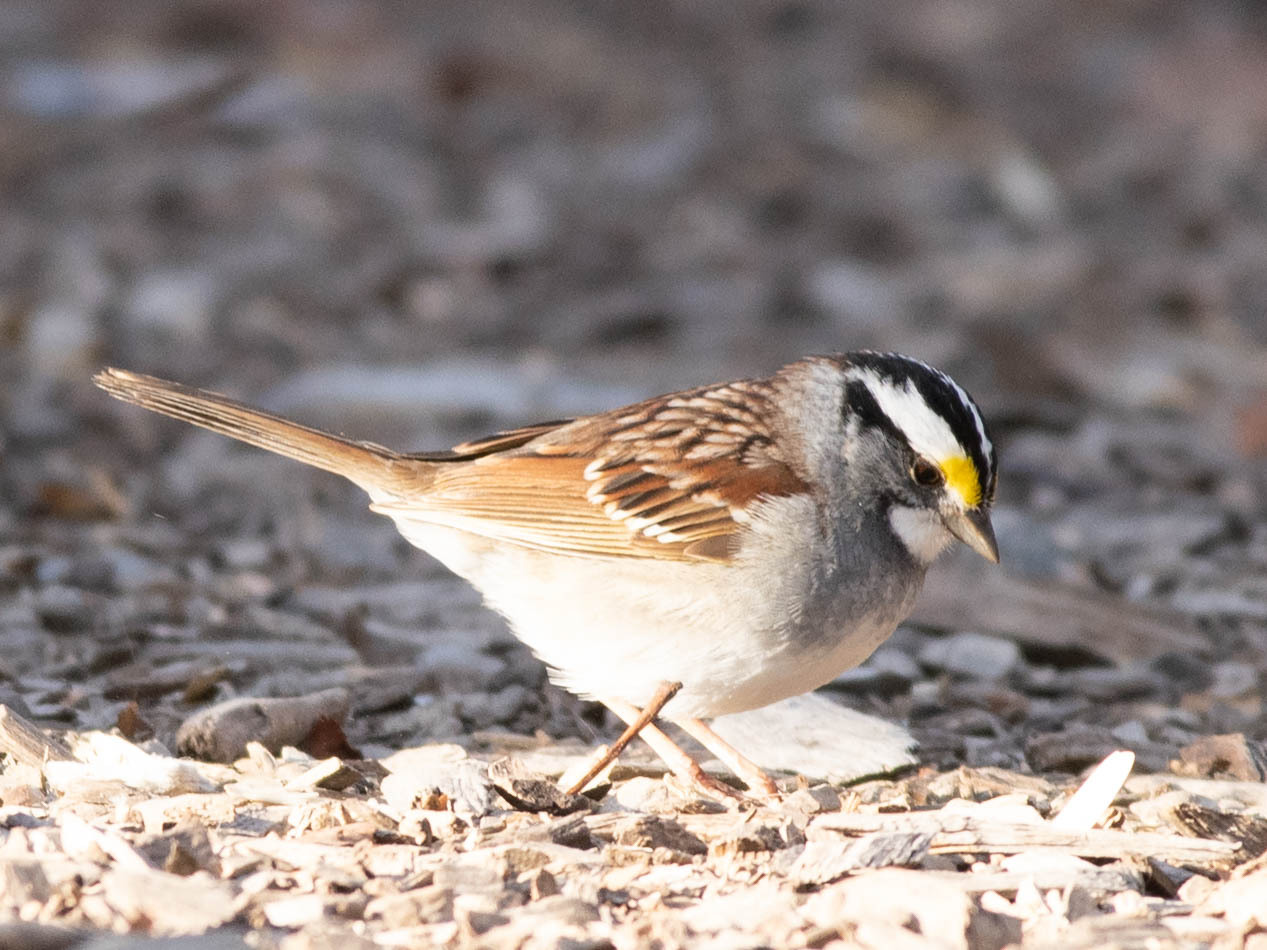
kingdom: Animalia
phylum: Chordata
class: Aves
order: Passeriformes
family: Passerellidae
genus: Zonotrichia
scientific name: Zonotrichia albicollis
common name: White-throated sparrow
